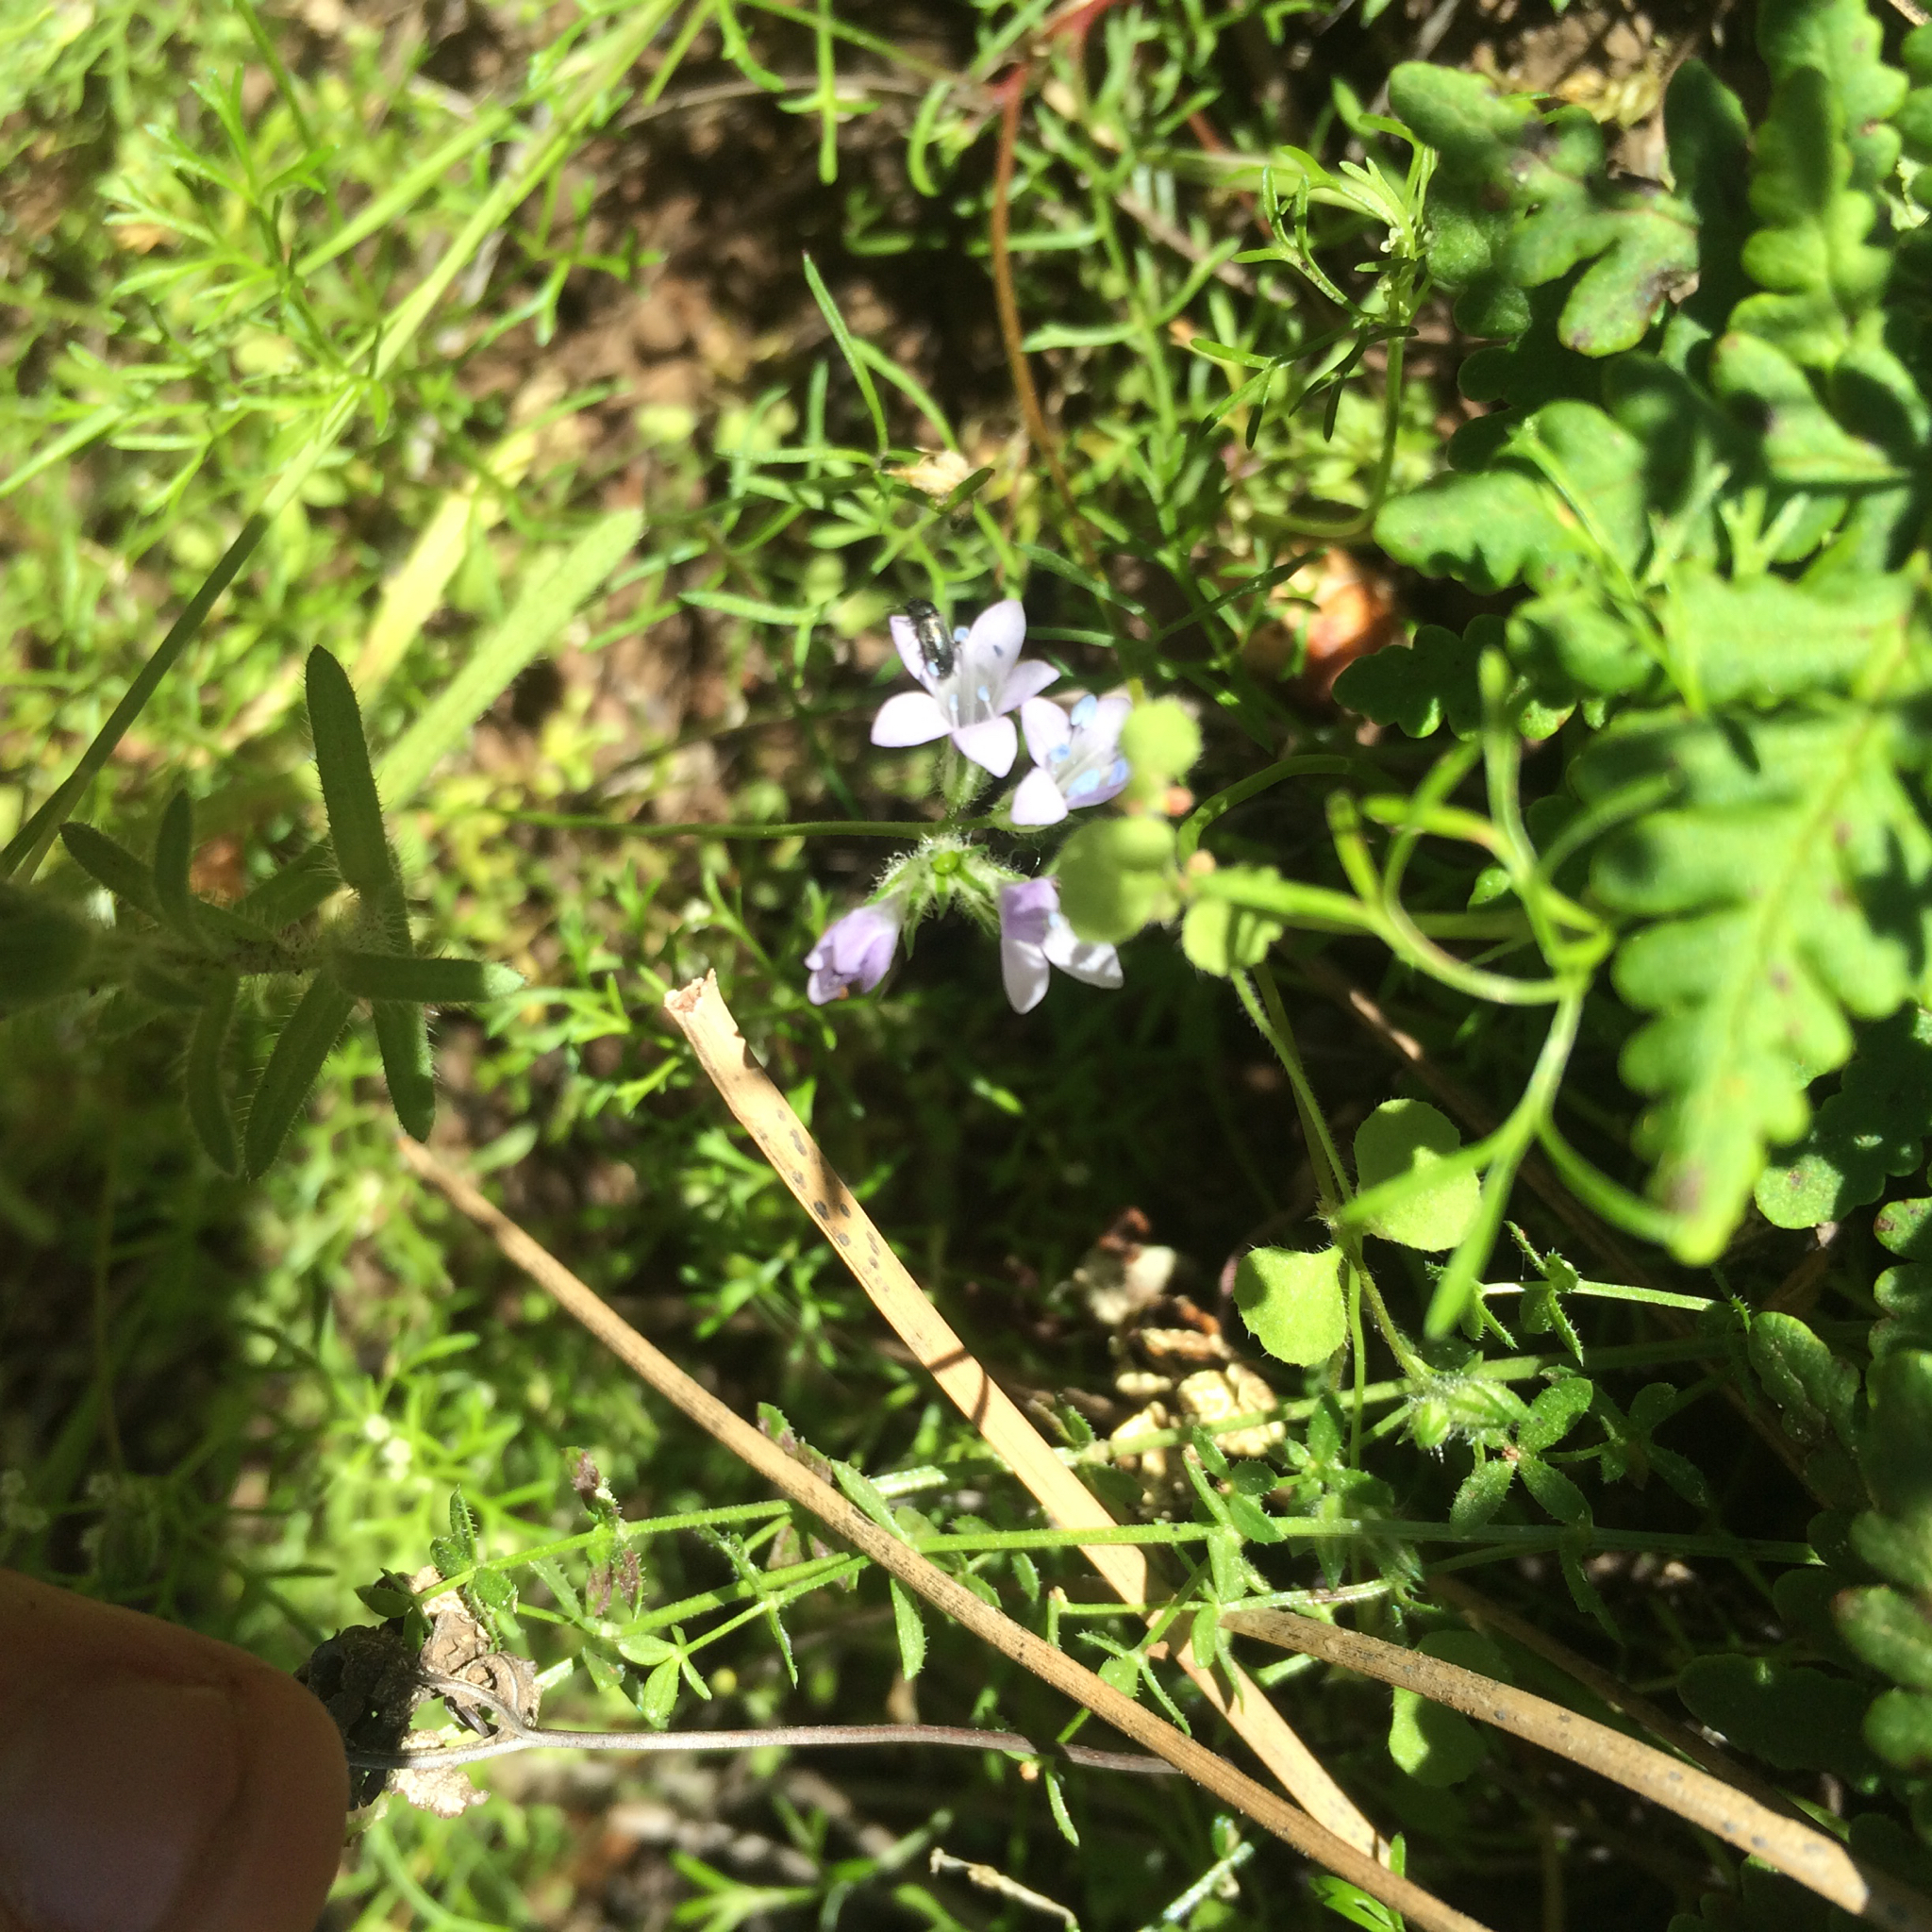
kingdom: Plantae
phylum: Tracheophyta
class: Magnoliopsida
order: Ericales
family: Polemoniaceae
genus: Gilia
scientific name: Gilia achilleifolia
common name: California gily-flower
